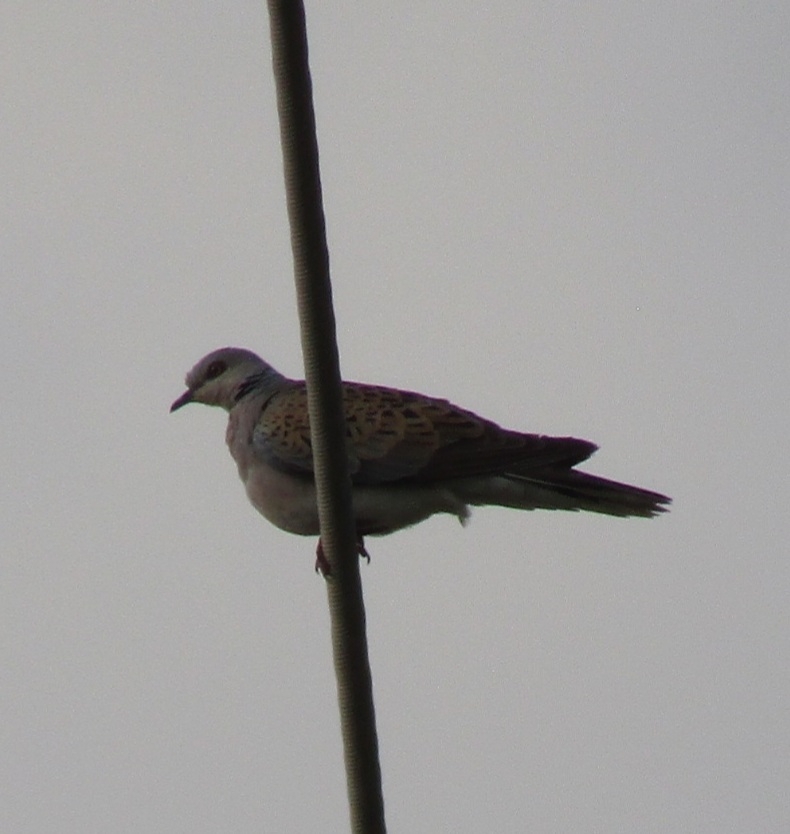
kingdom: Animalia
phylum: Chordata
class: Aves
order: Columbiformes
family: Columbidae
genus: Streptopelia
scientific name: Streptopelia turtur
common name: European turtle dove
